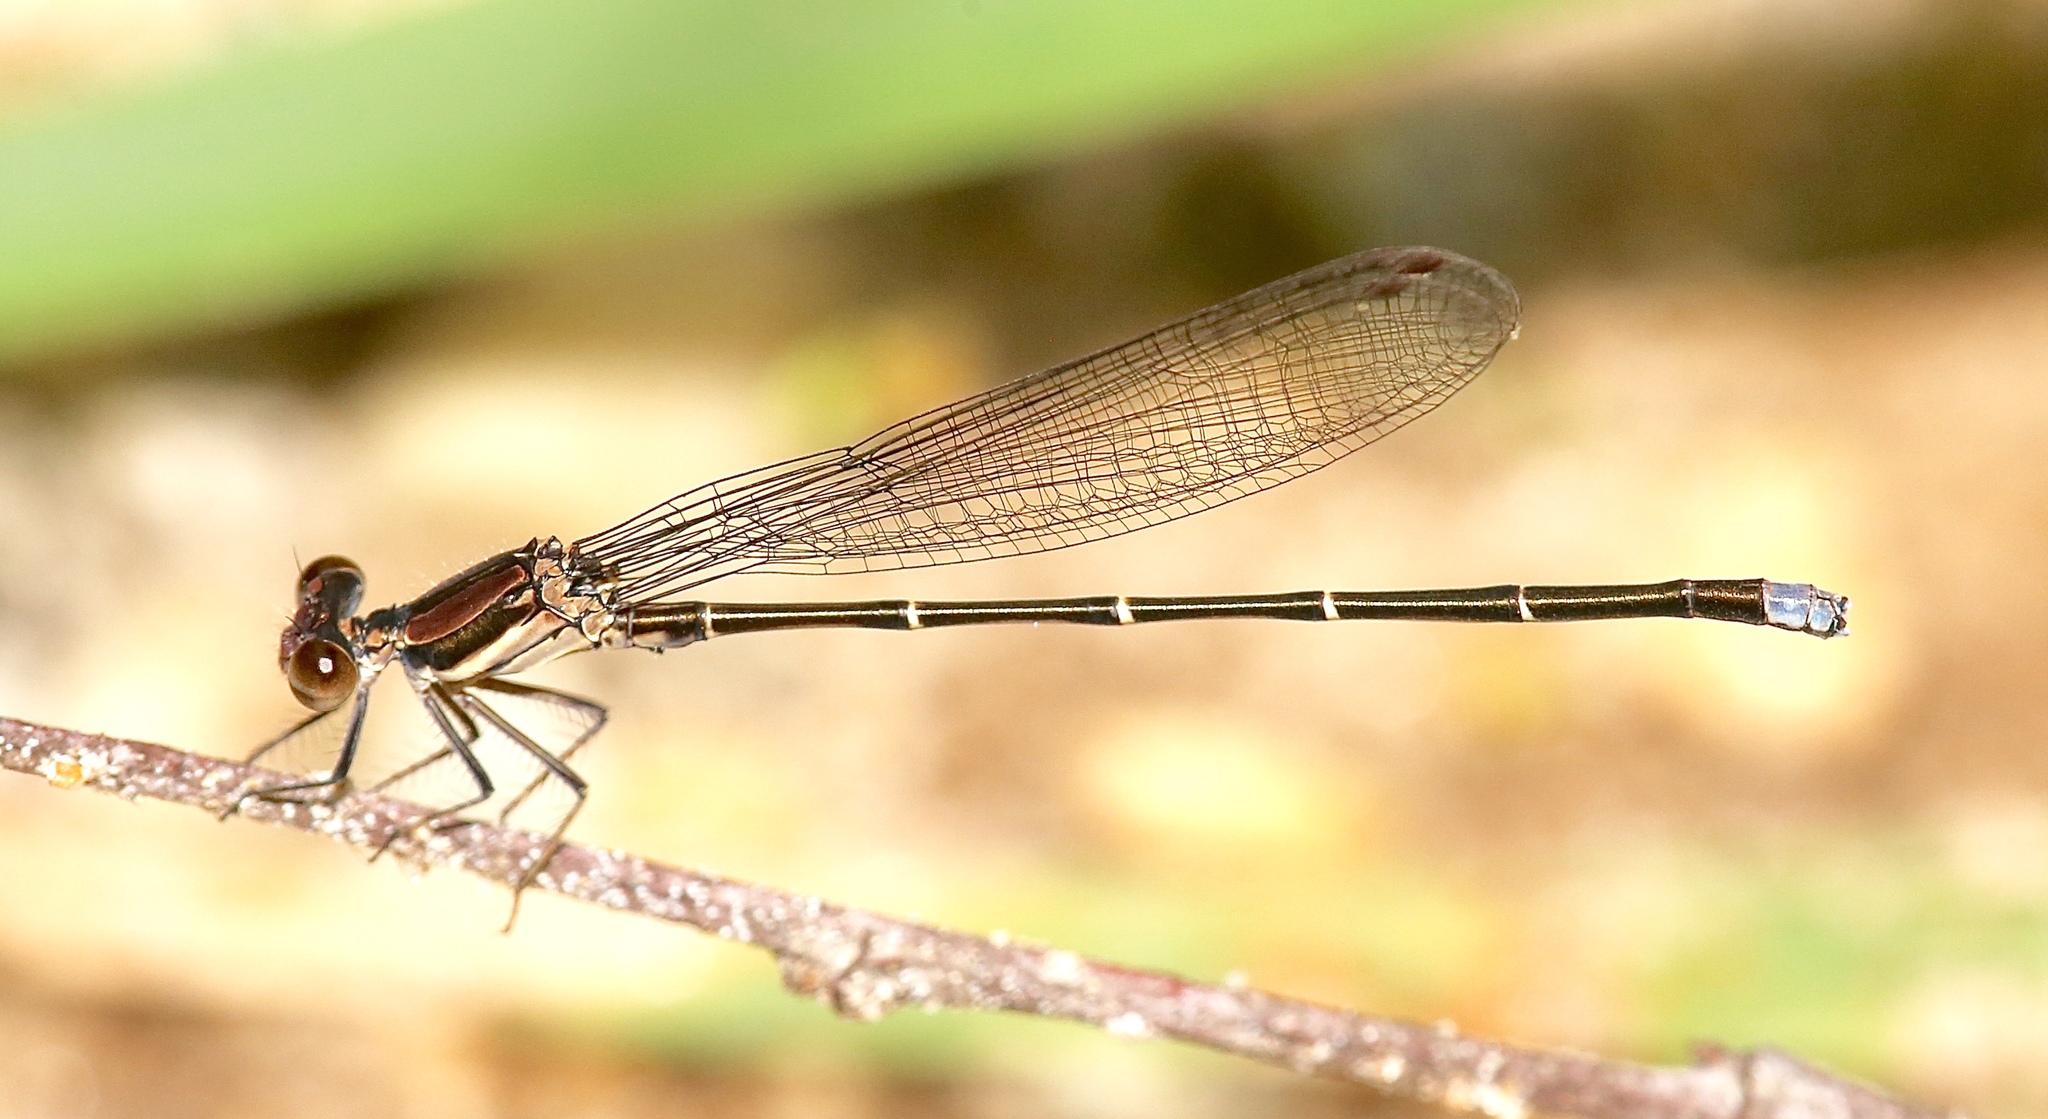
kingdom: Animalia
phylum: Arthropoda
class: Insecta
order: Odonata
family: Coenagrionidae
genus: Argia
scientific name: Argia tibialis
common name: Blue-tipped dancer
